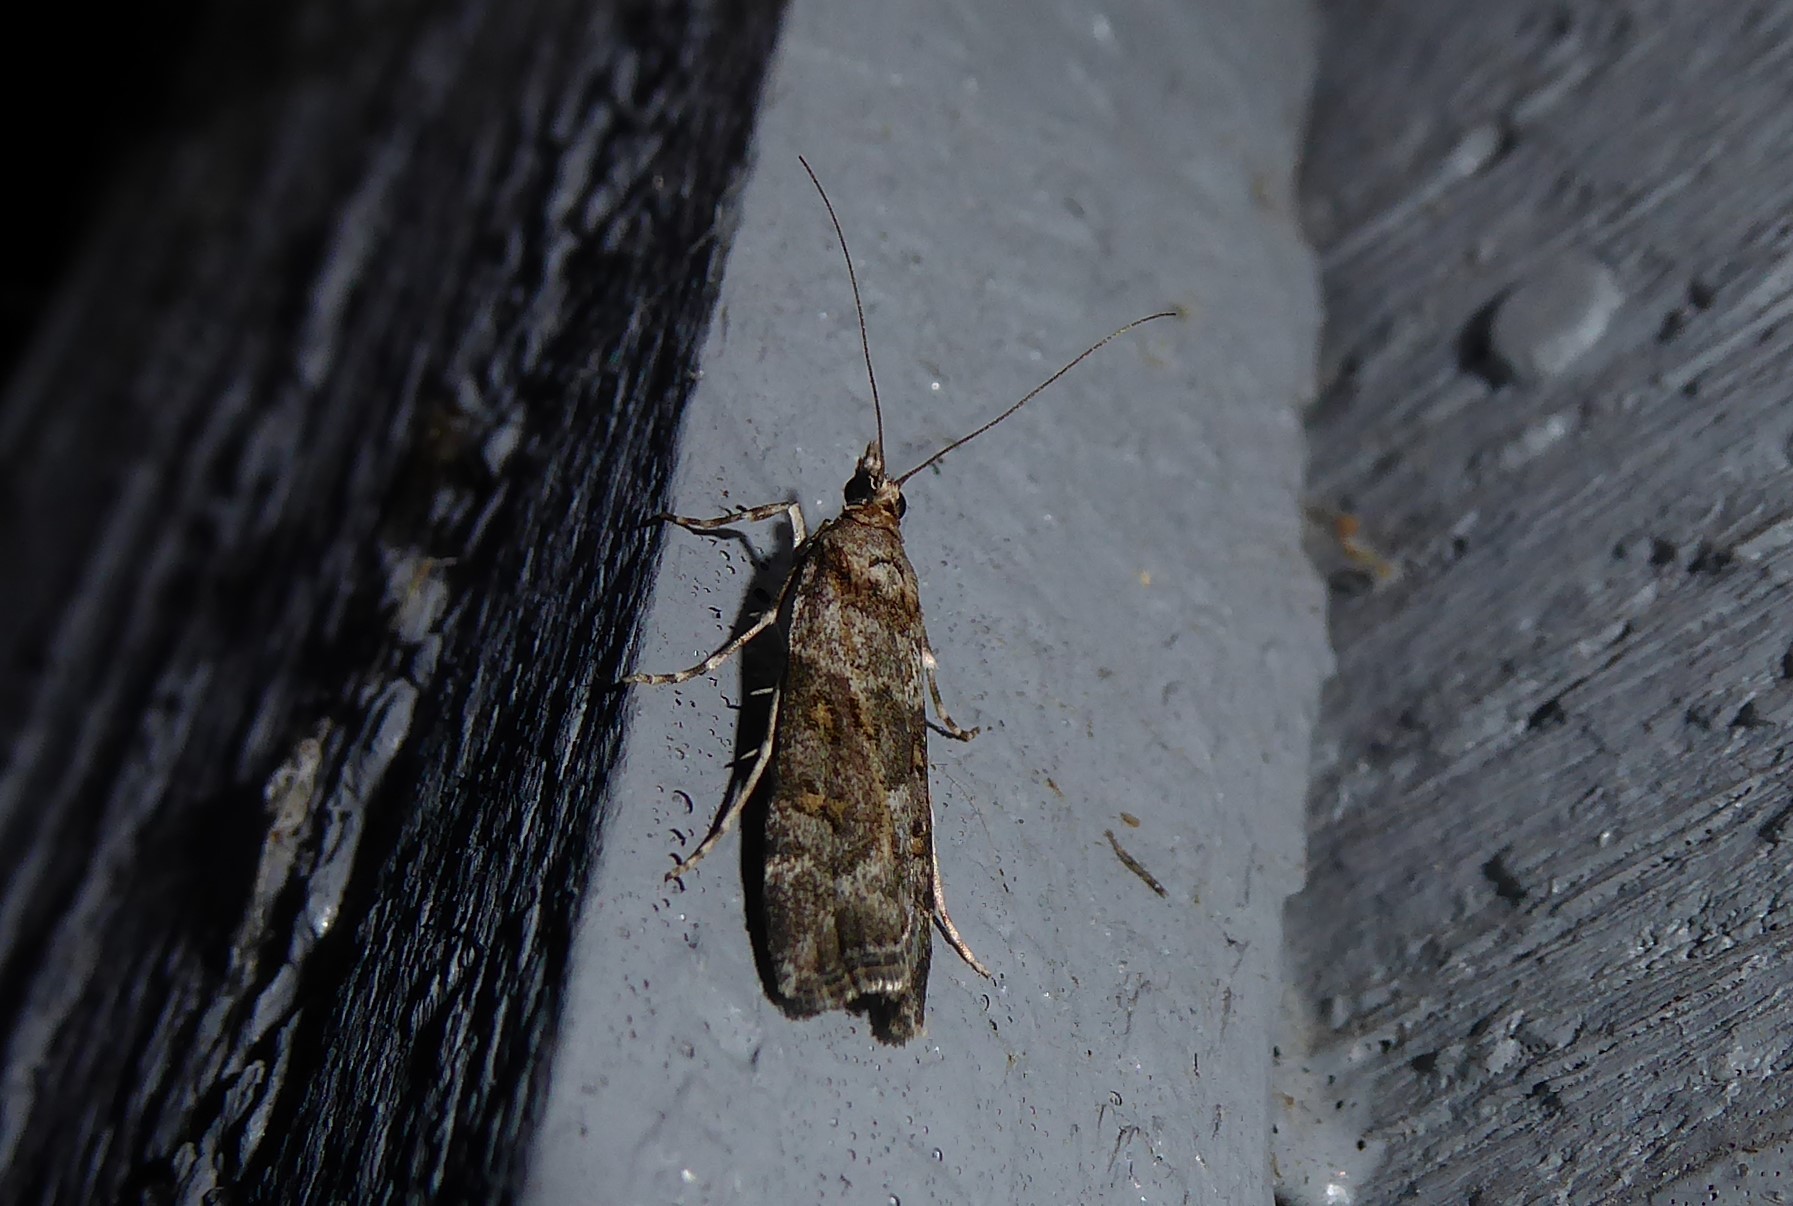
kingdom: Animalia
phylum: Arthropoda
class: Insecta
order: Lepidoptera
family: Crambidae
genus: Eudonia
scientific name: Eudonia diphtheralis
